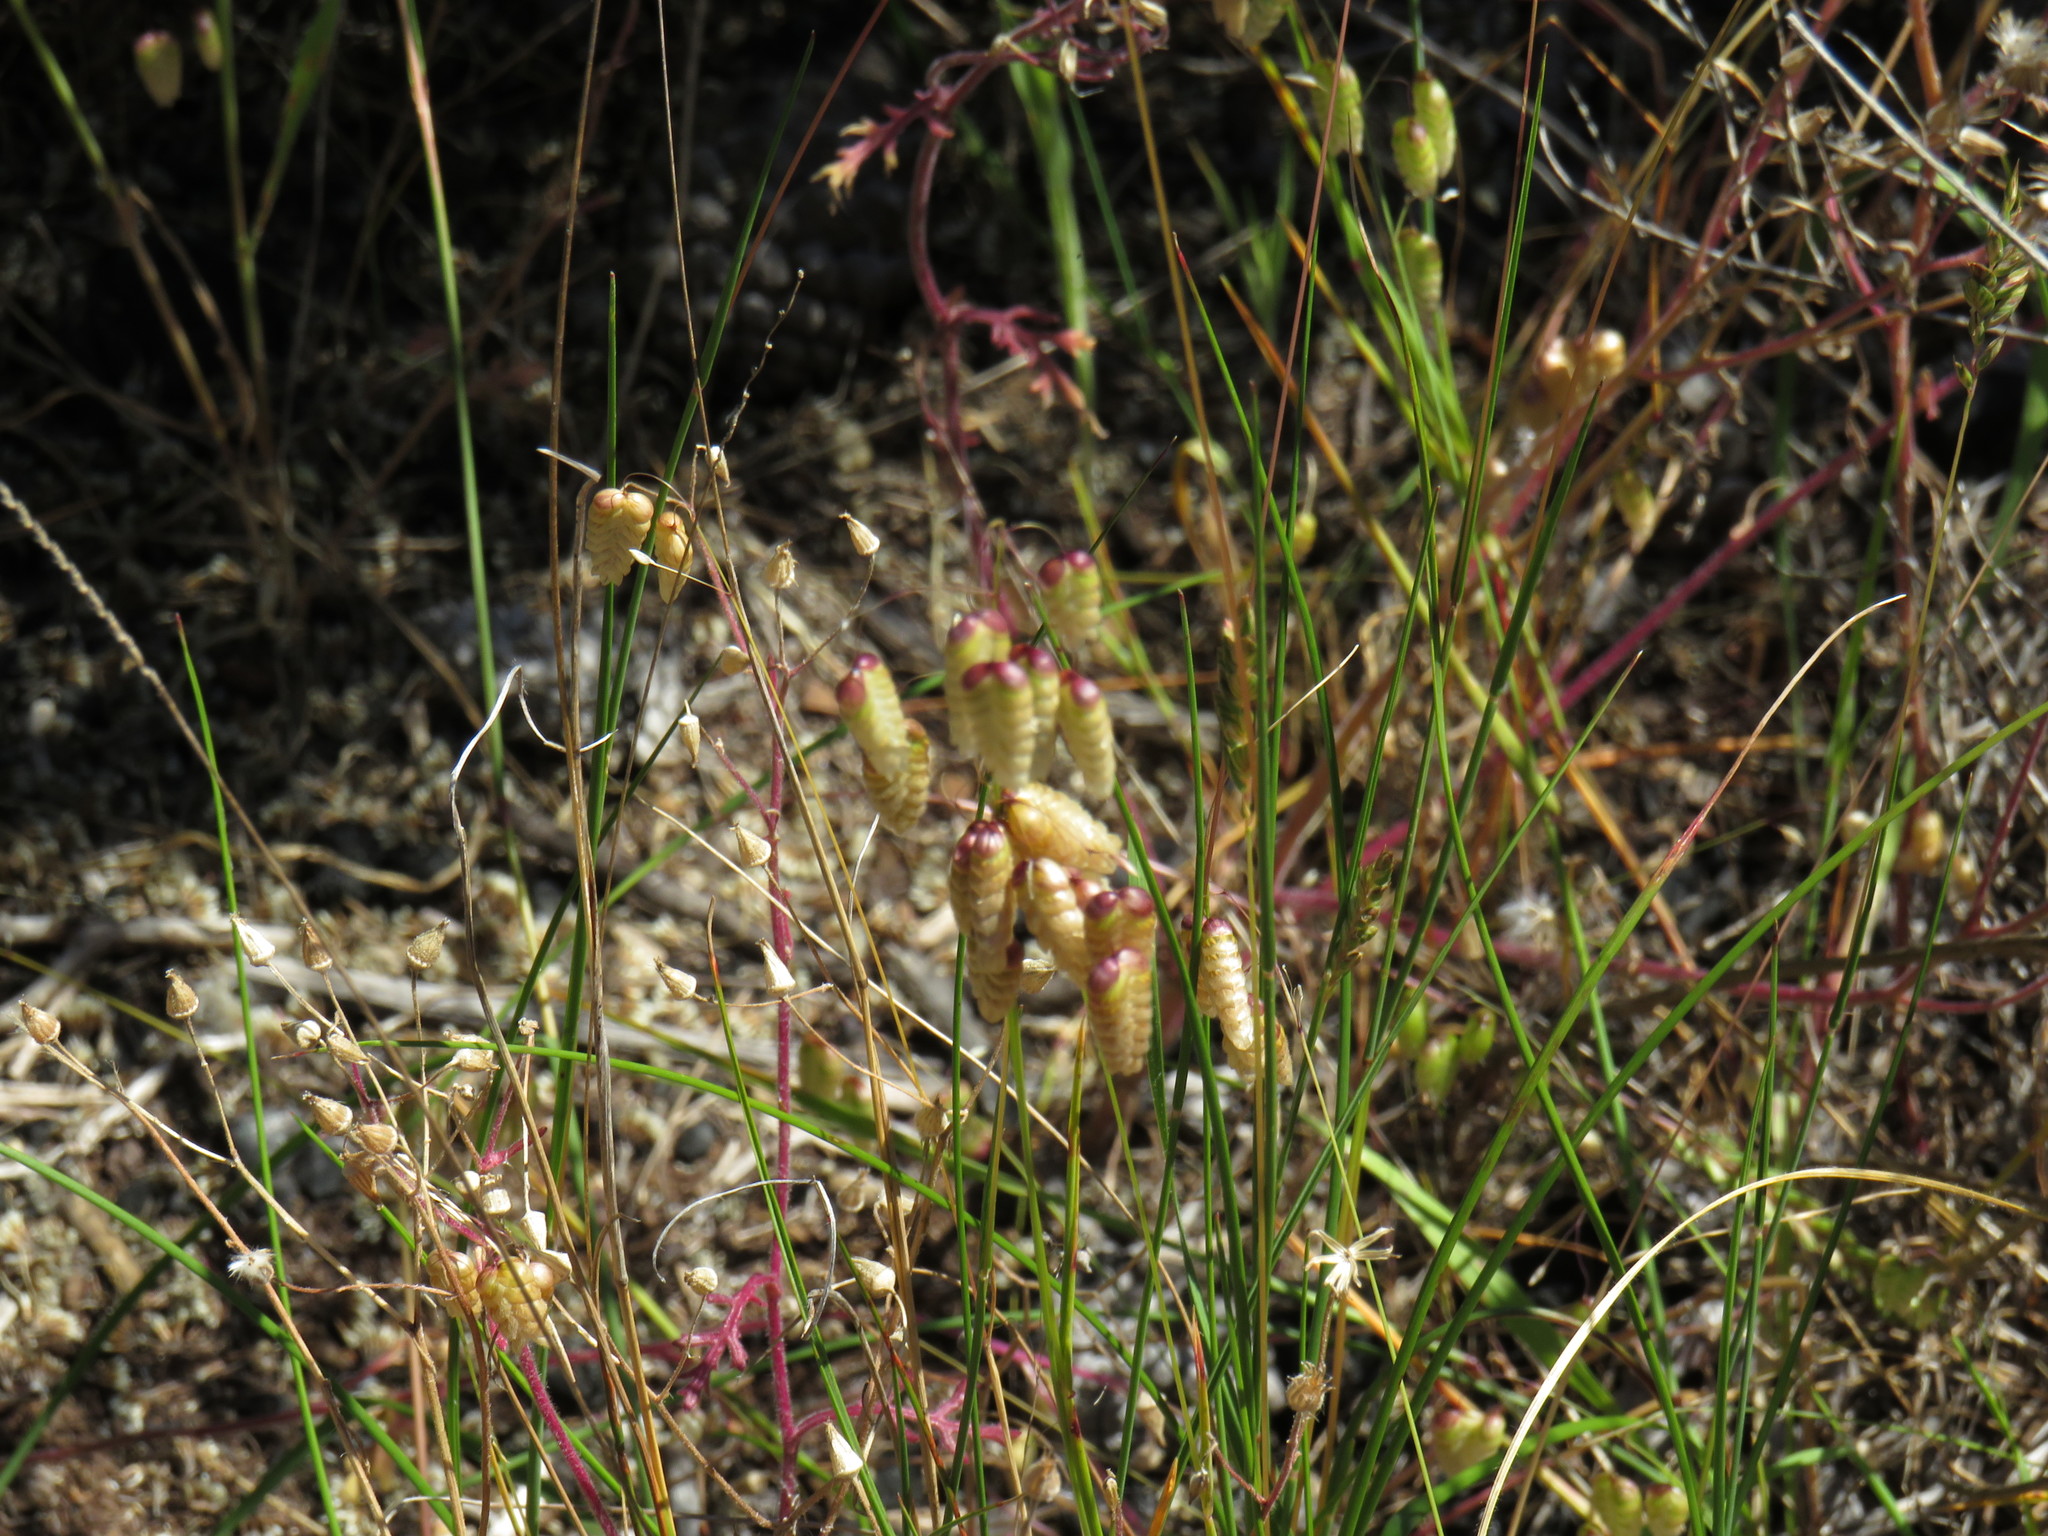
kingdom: Plantae
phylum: Tracheophyta
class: Liliopsida
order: Poales
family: Poaceae
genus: Briza
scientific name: Briza maxima
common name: Big quakinggrass
